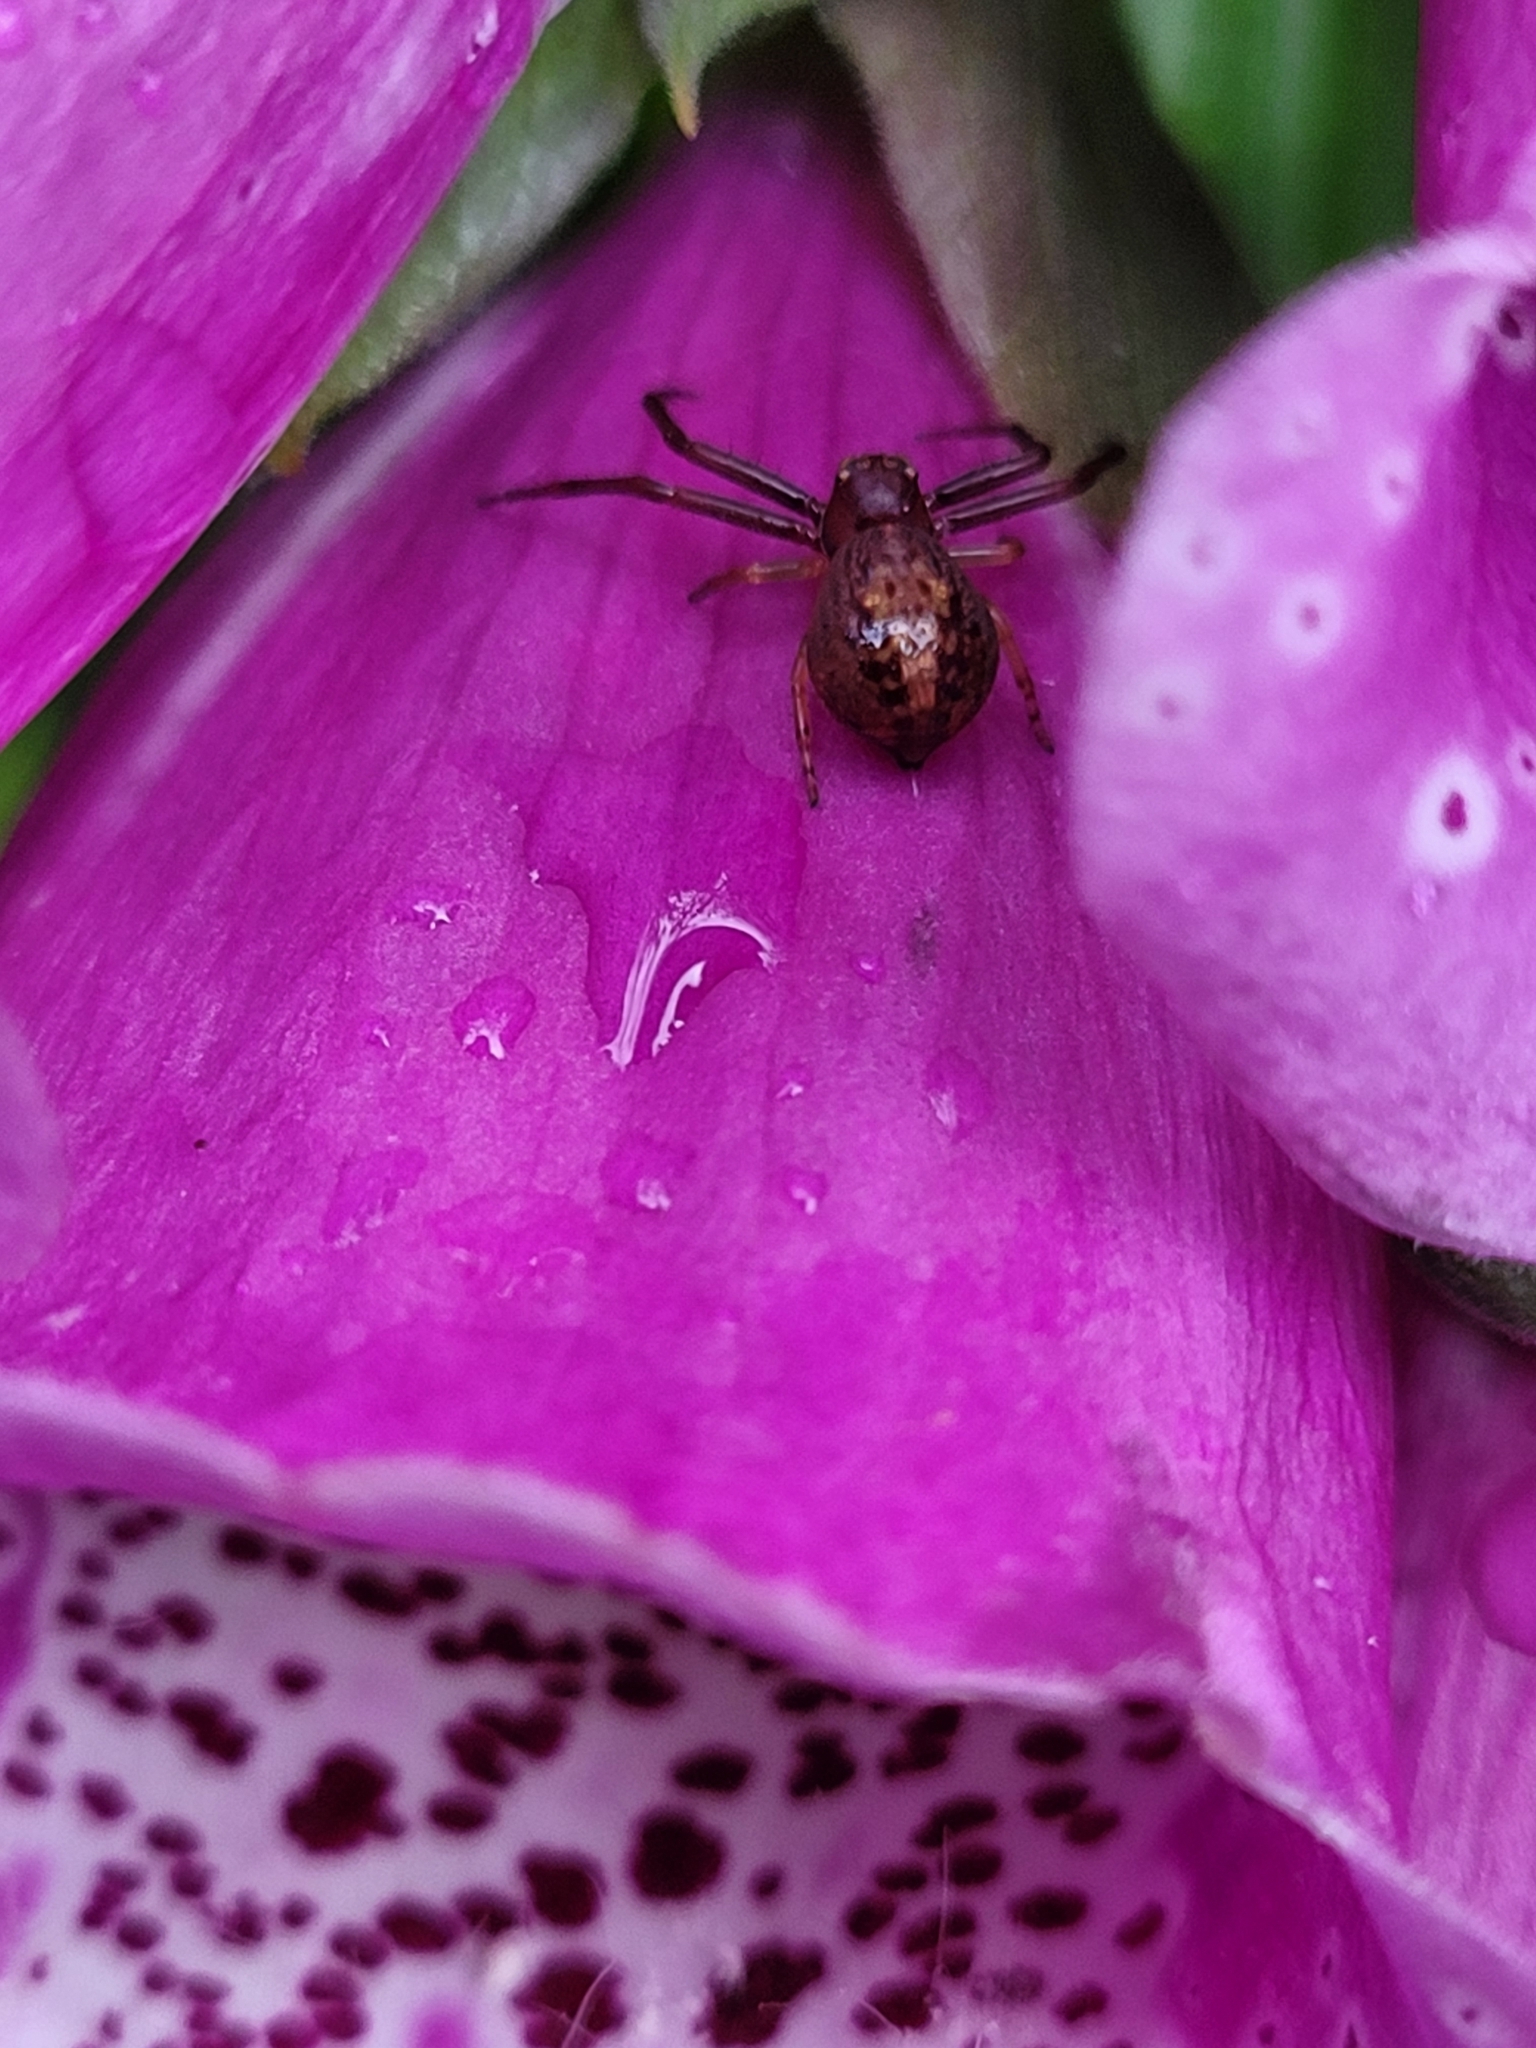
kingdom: Animalia
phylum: Arthropoda
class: Arachnida
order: Araneae
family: Thomisidae
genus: Diaea
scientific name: Diaea ambara
